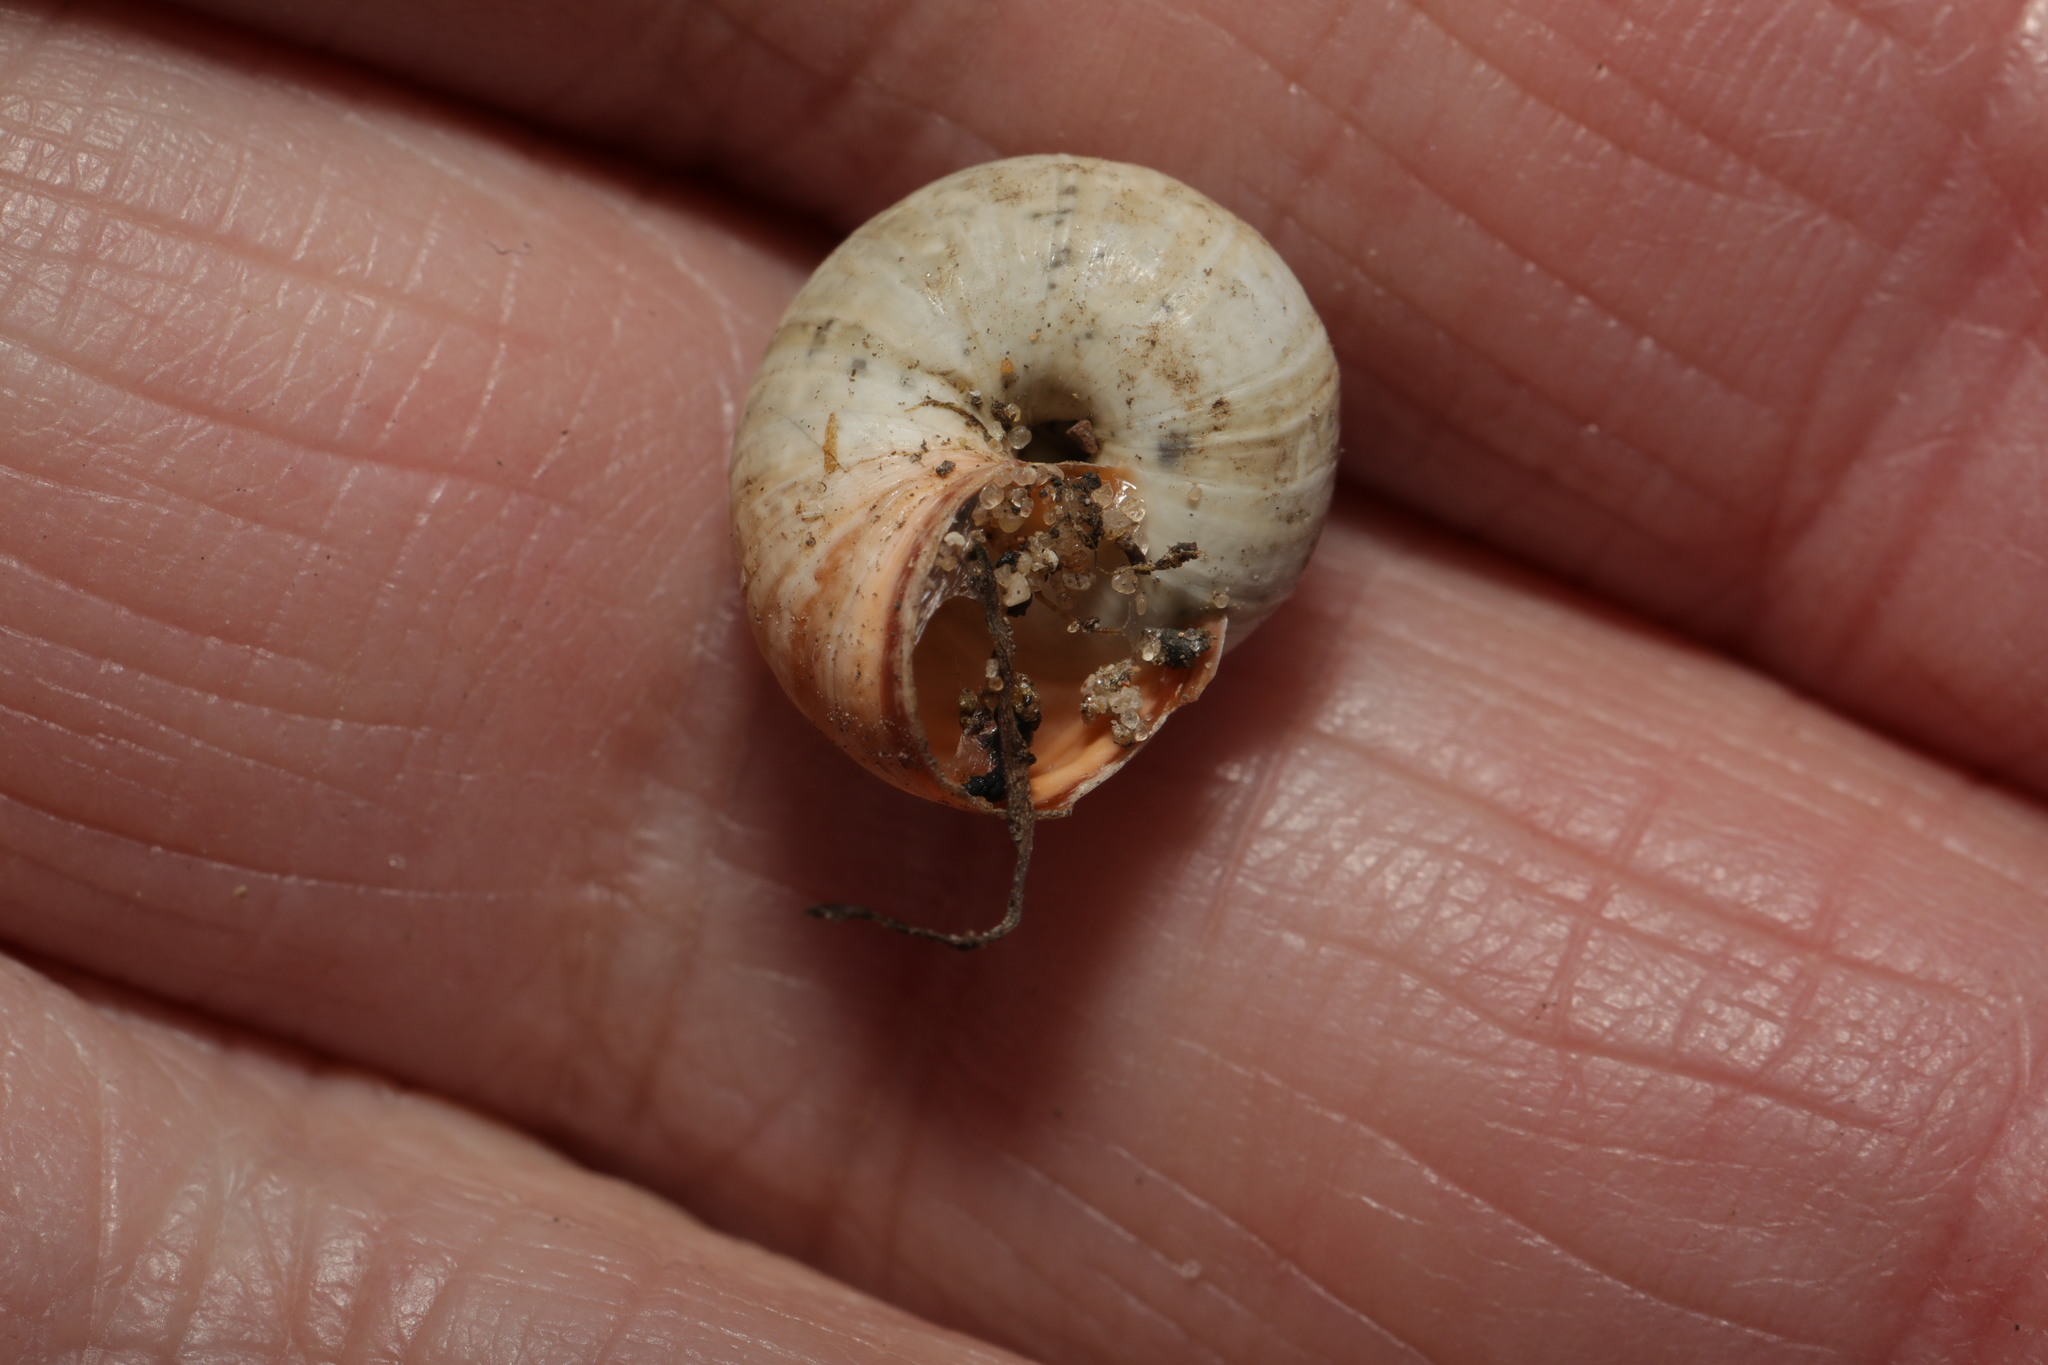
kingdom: Animalia
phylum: Mollusca
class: Gastropoda
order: Stylommatophora
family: Geomitridae
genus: Cernuella
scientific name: Cernuella virgata
